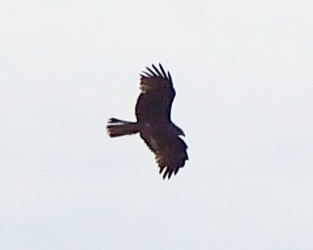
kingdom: Animalia
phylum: Chordata
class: Aves
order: Accipitriformes
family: Accipitridae
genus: Milvus
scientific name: Milvus migrans
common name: Black kite
